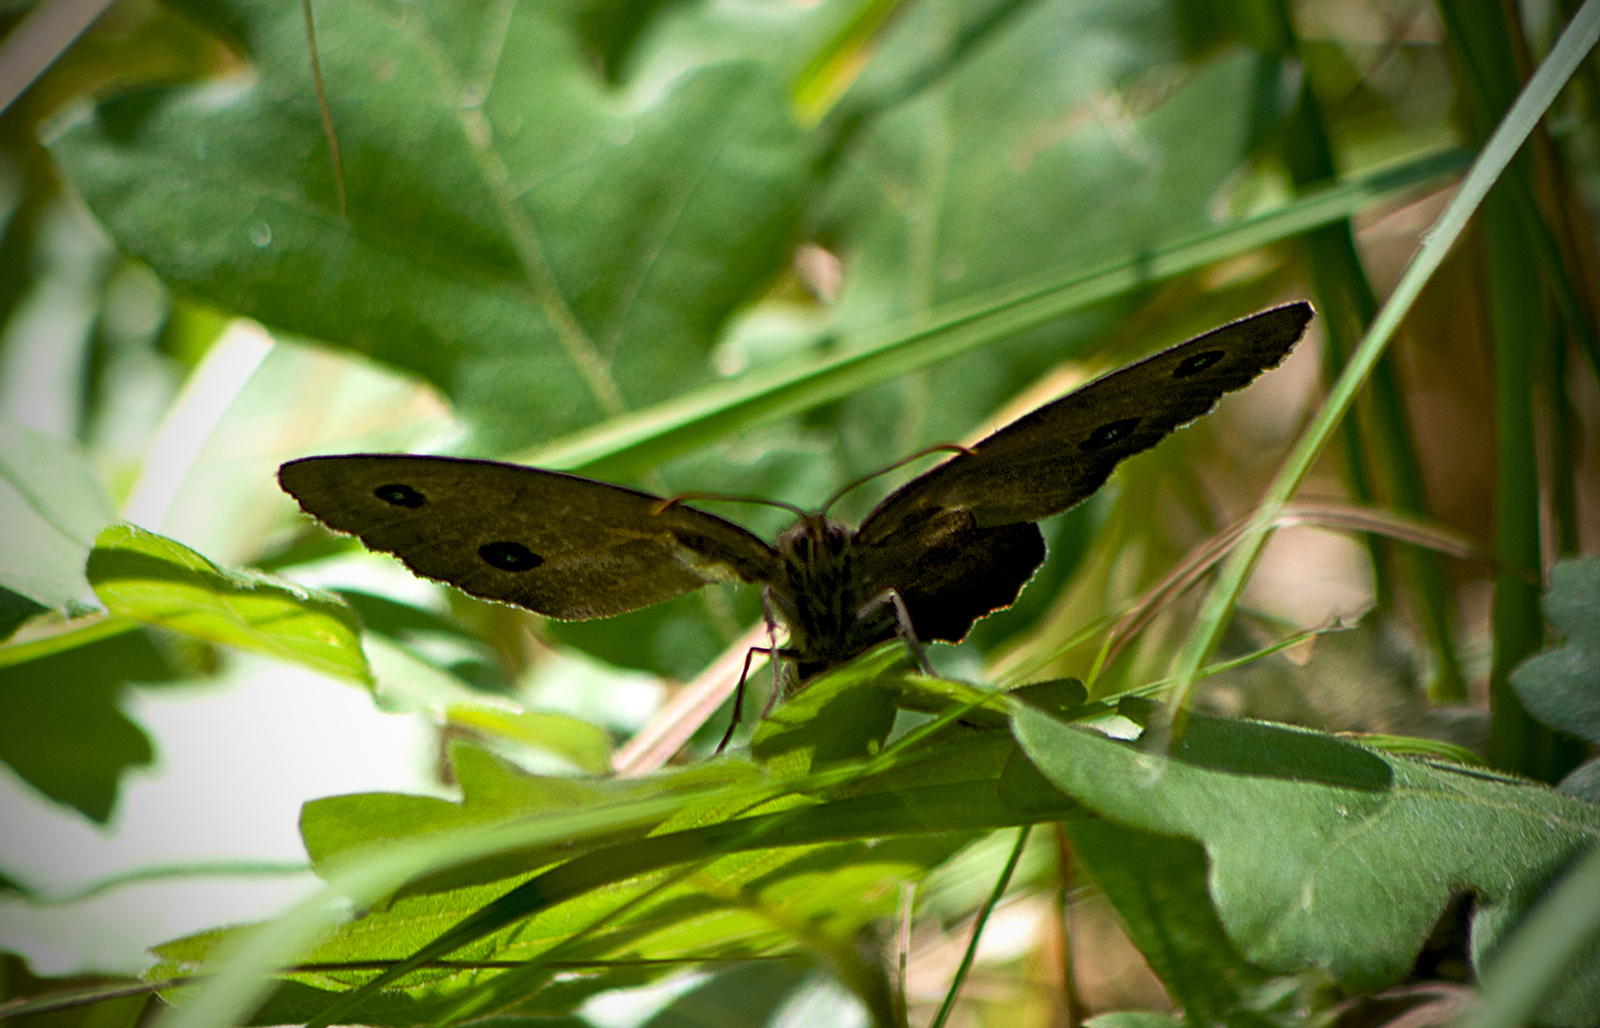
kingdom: Animalia
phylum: Arthropoda
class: Insecta
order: Lepidoptera
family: Nymphalidae
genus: Minois
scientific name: Minois dryas
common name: Dryad
